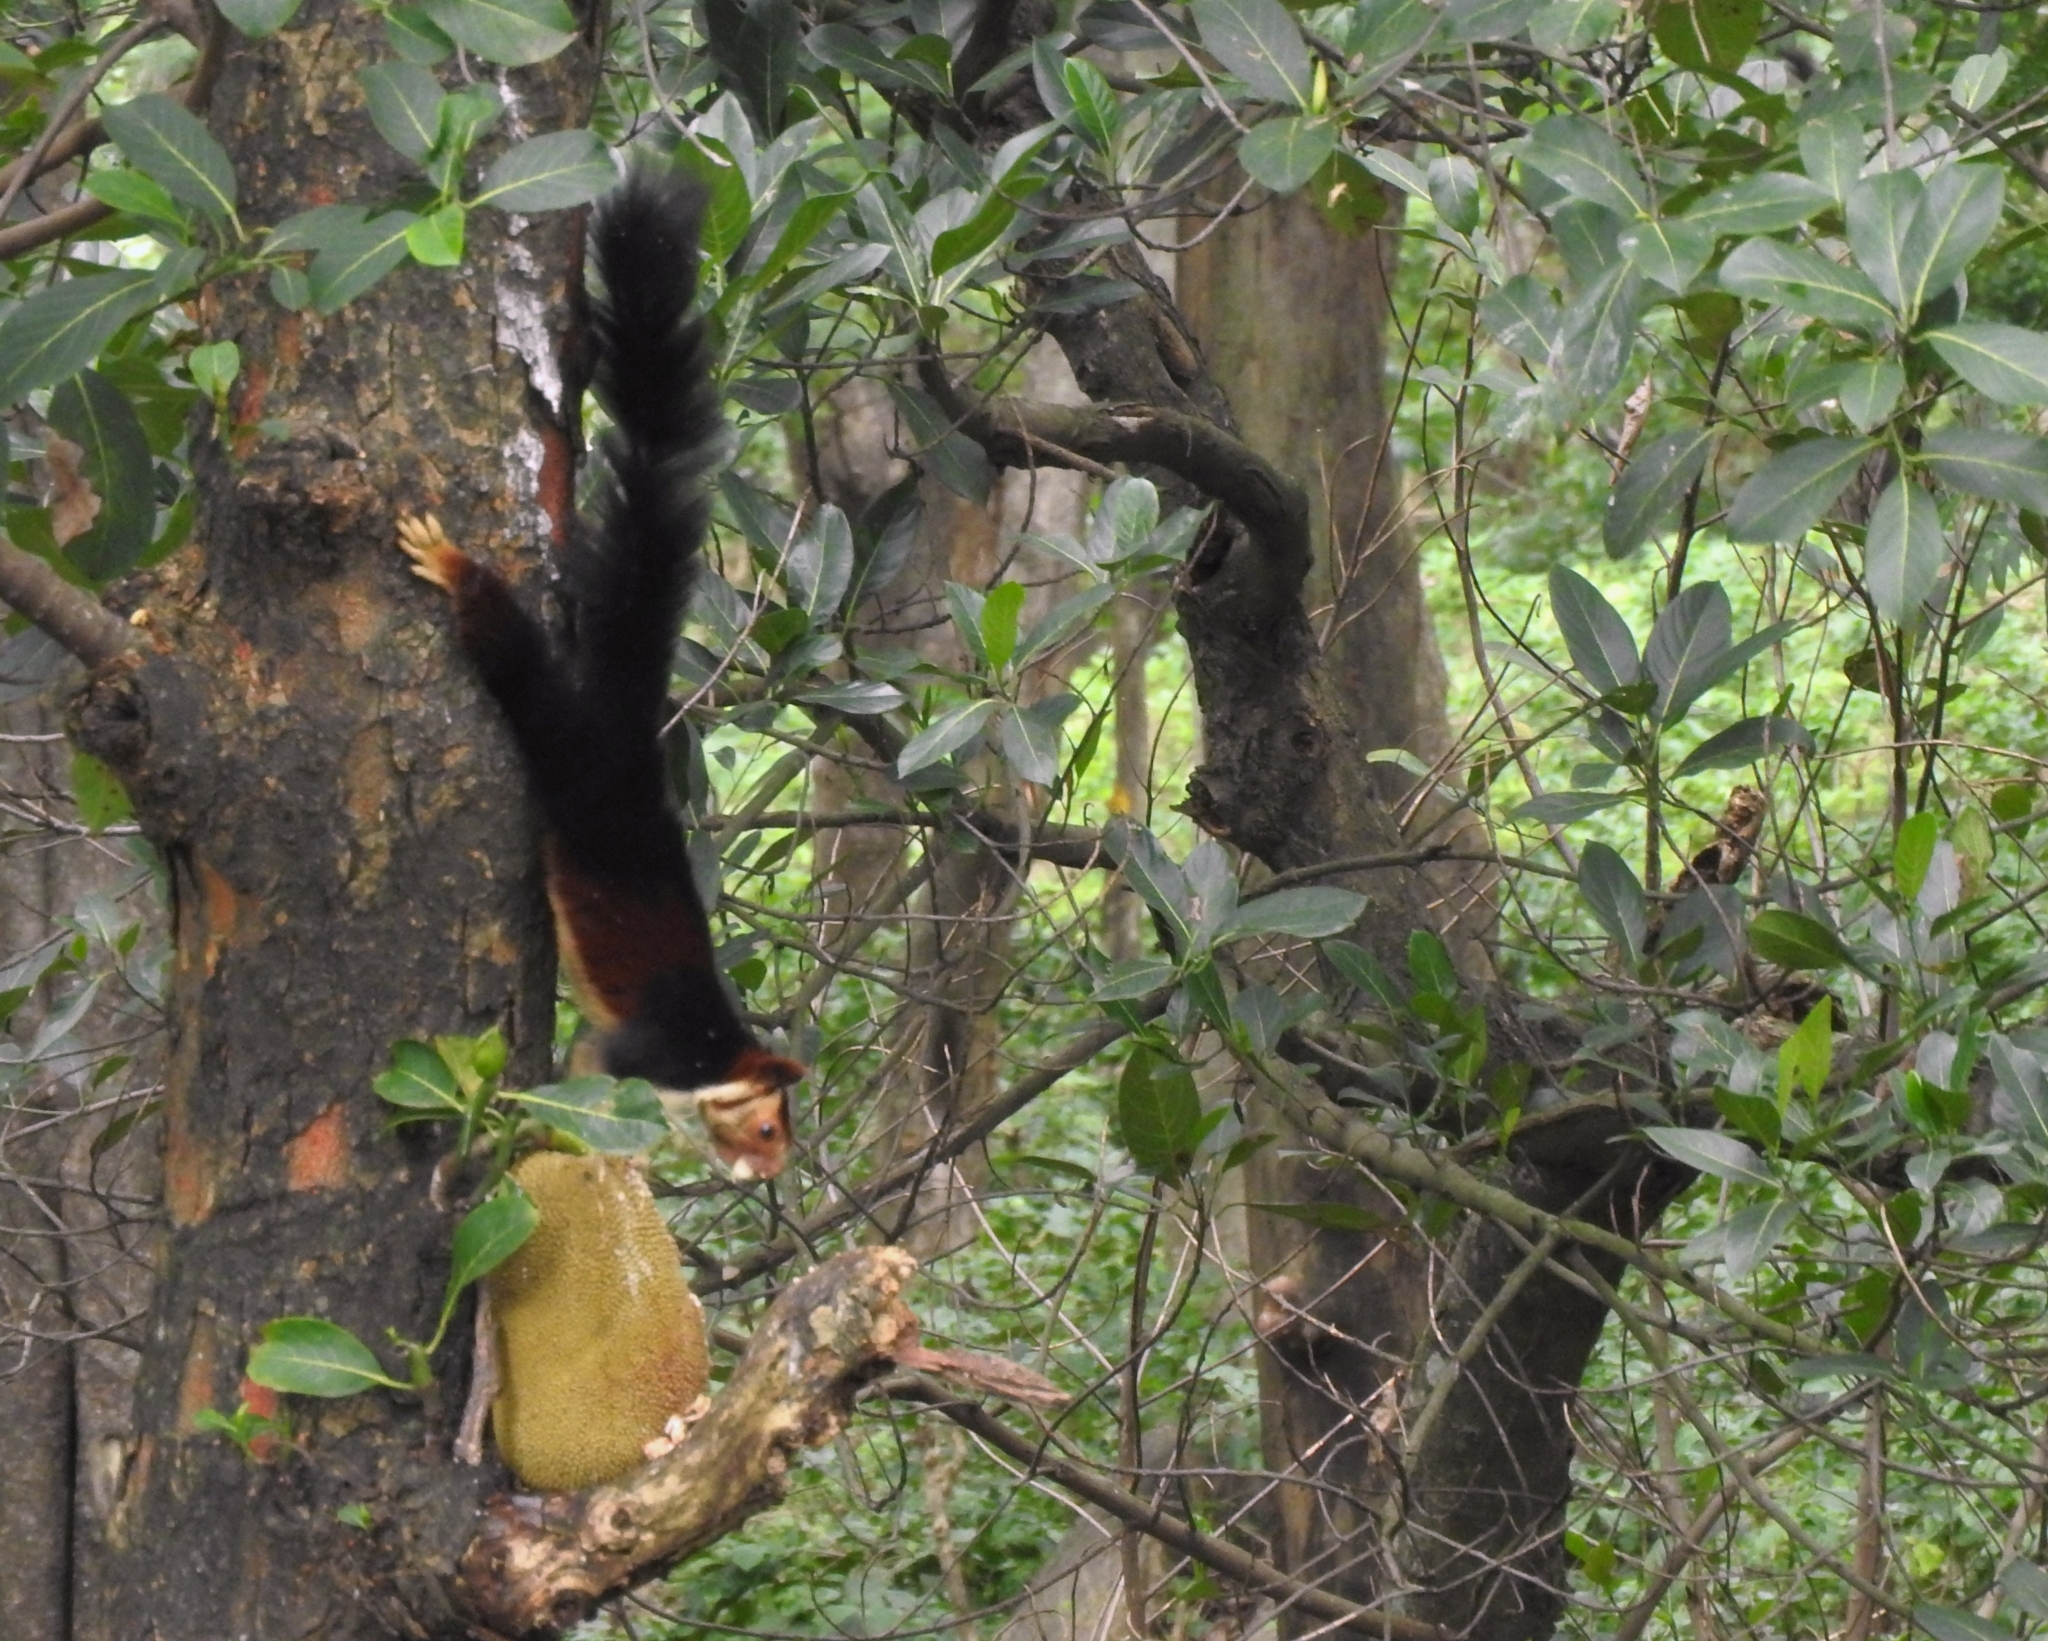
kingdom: Animalia
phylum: Chordata
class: Mammalia
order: Rodentia
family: Sciuridae
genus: Ratufa
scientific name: Ratufa indica
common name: Indian giant squirrel
